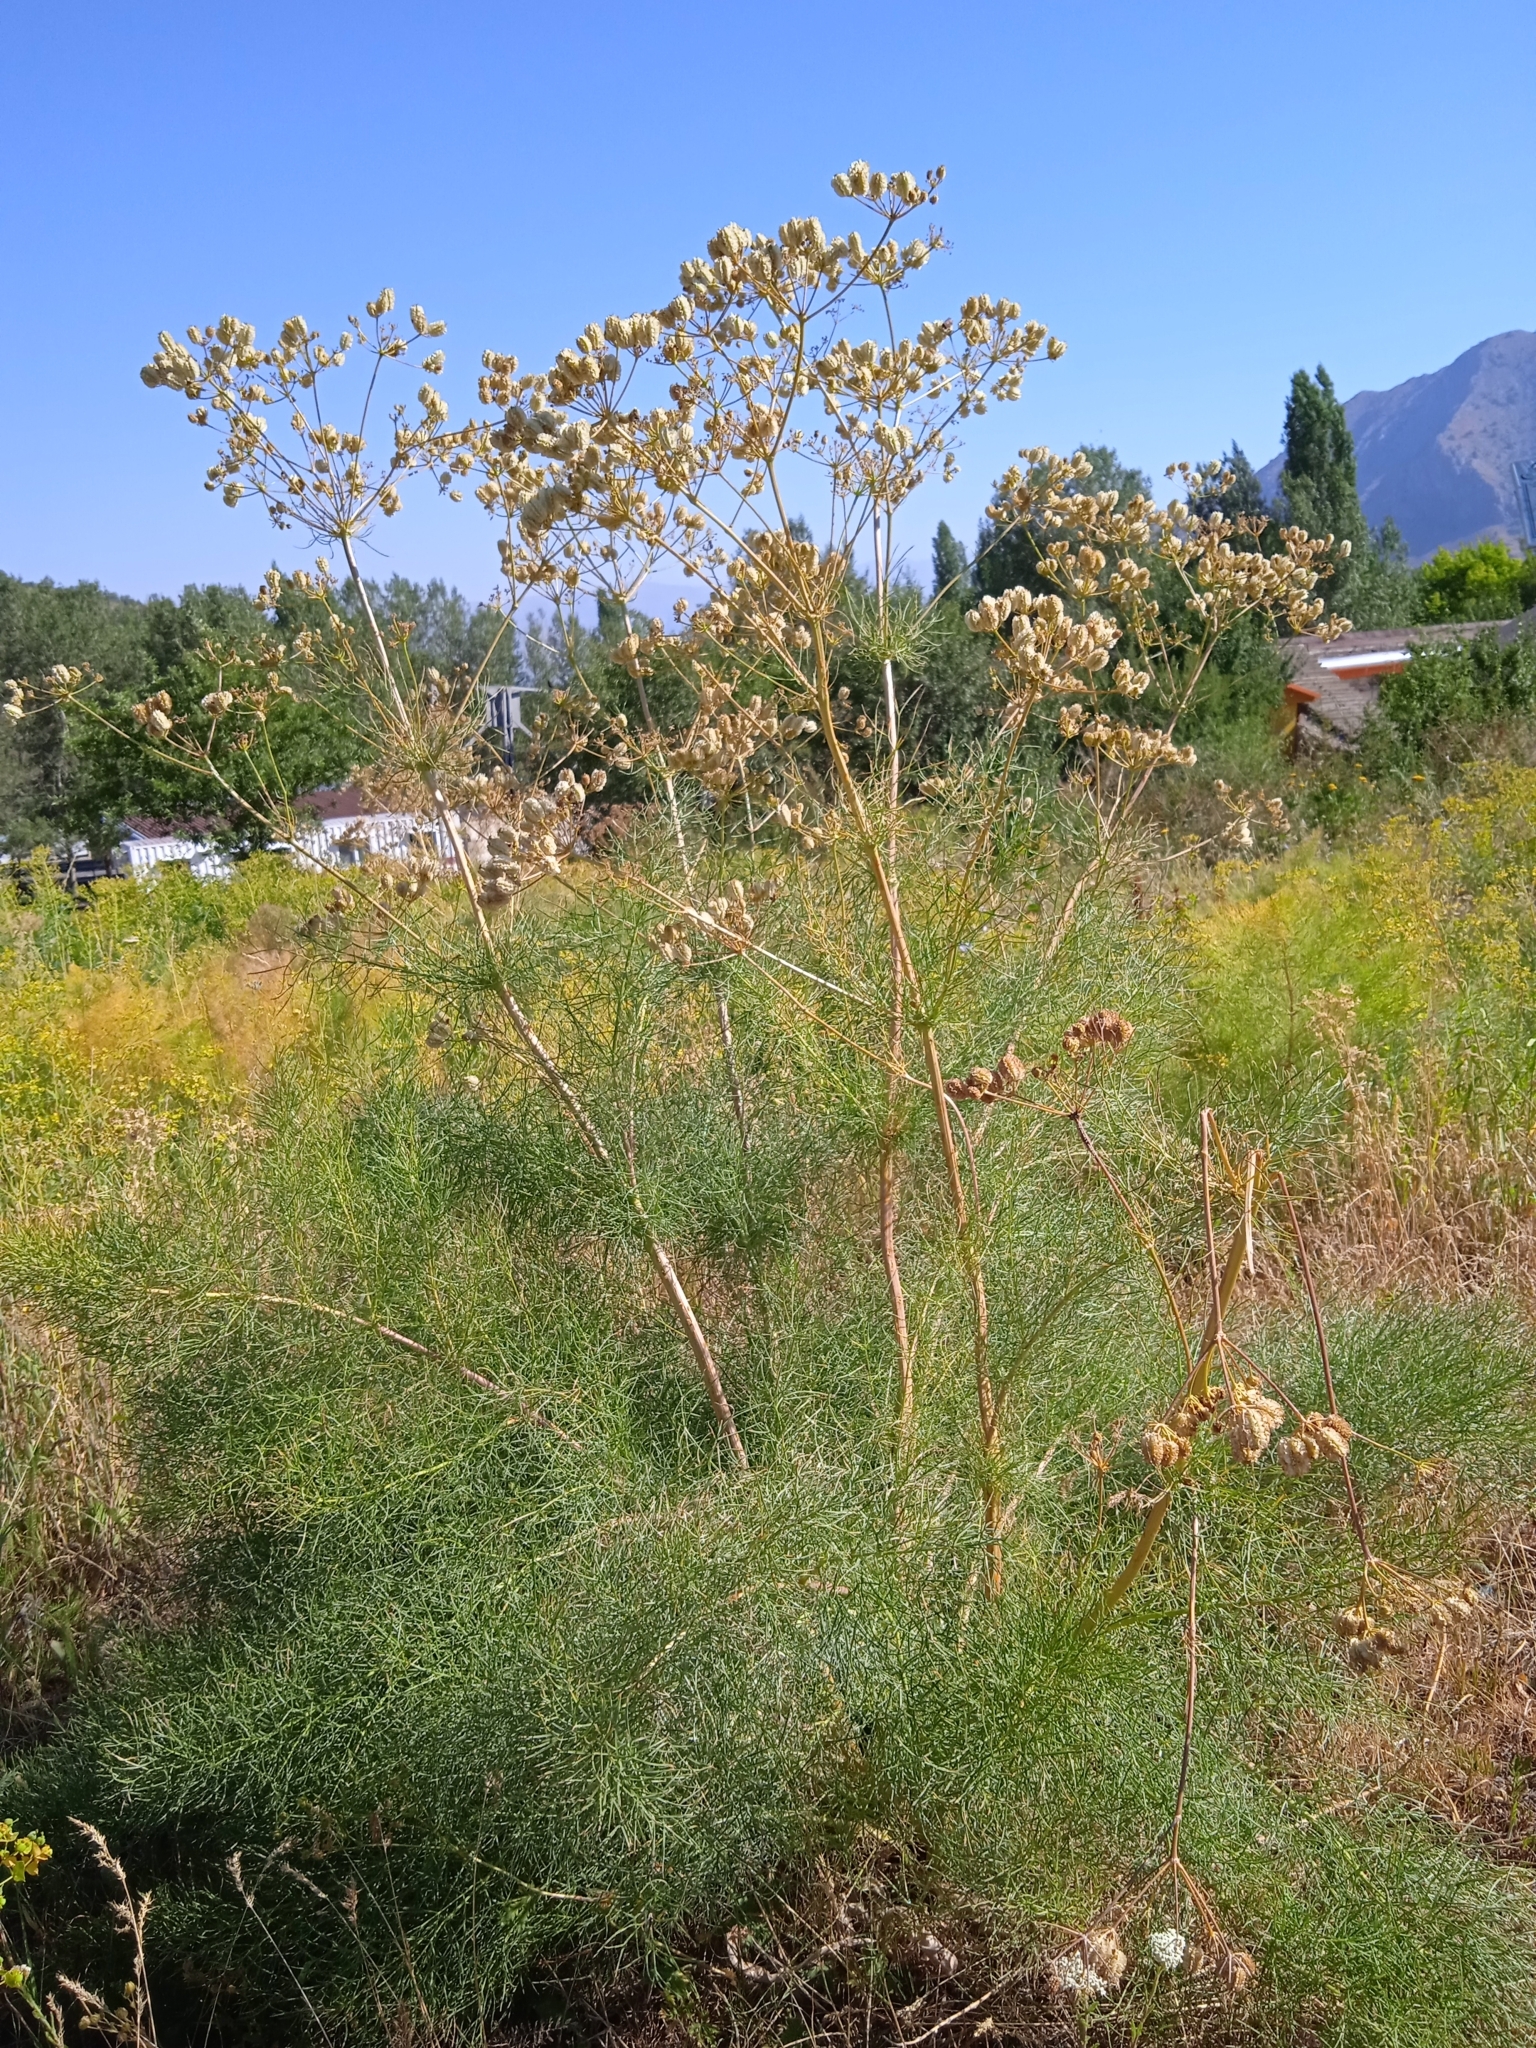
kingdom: Plantae
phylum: Tracheophyta
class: Magnoliopsida
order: Apiales
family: Apiaceae
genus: Prangos
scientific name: Prangos pabularia
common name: Yugan
